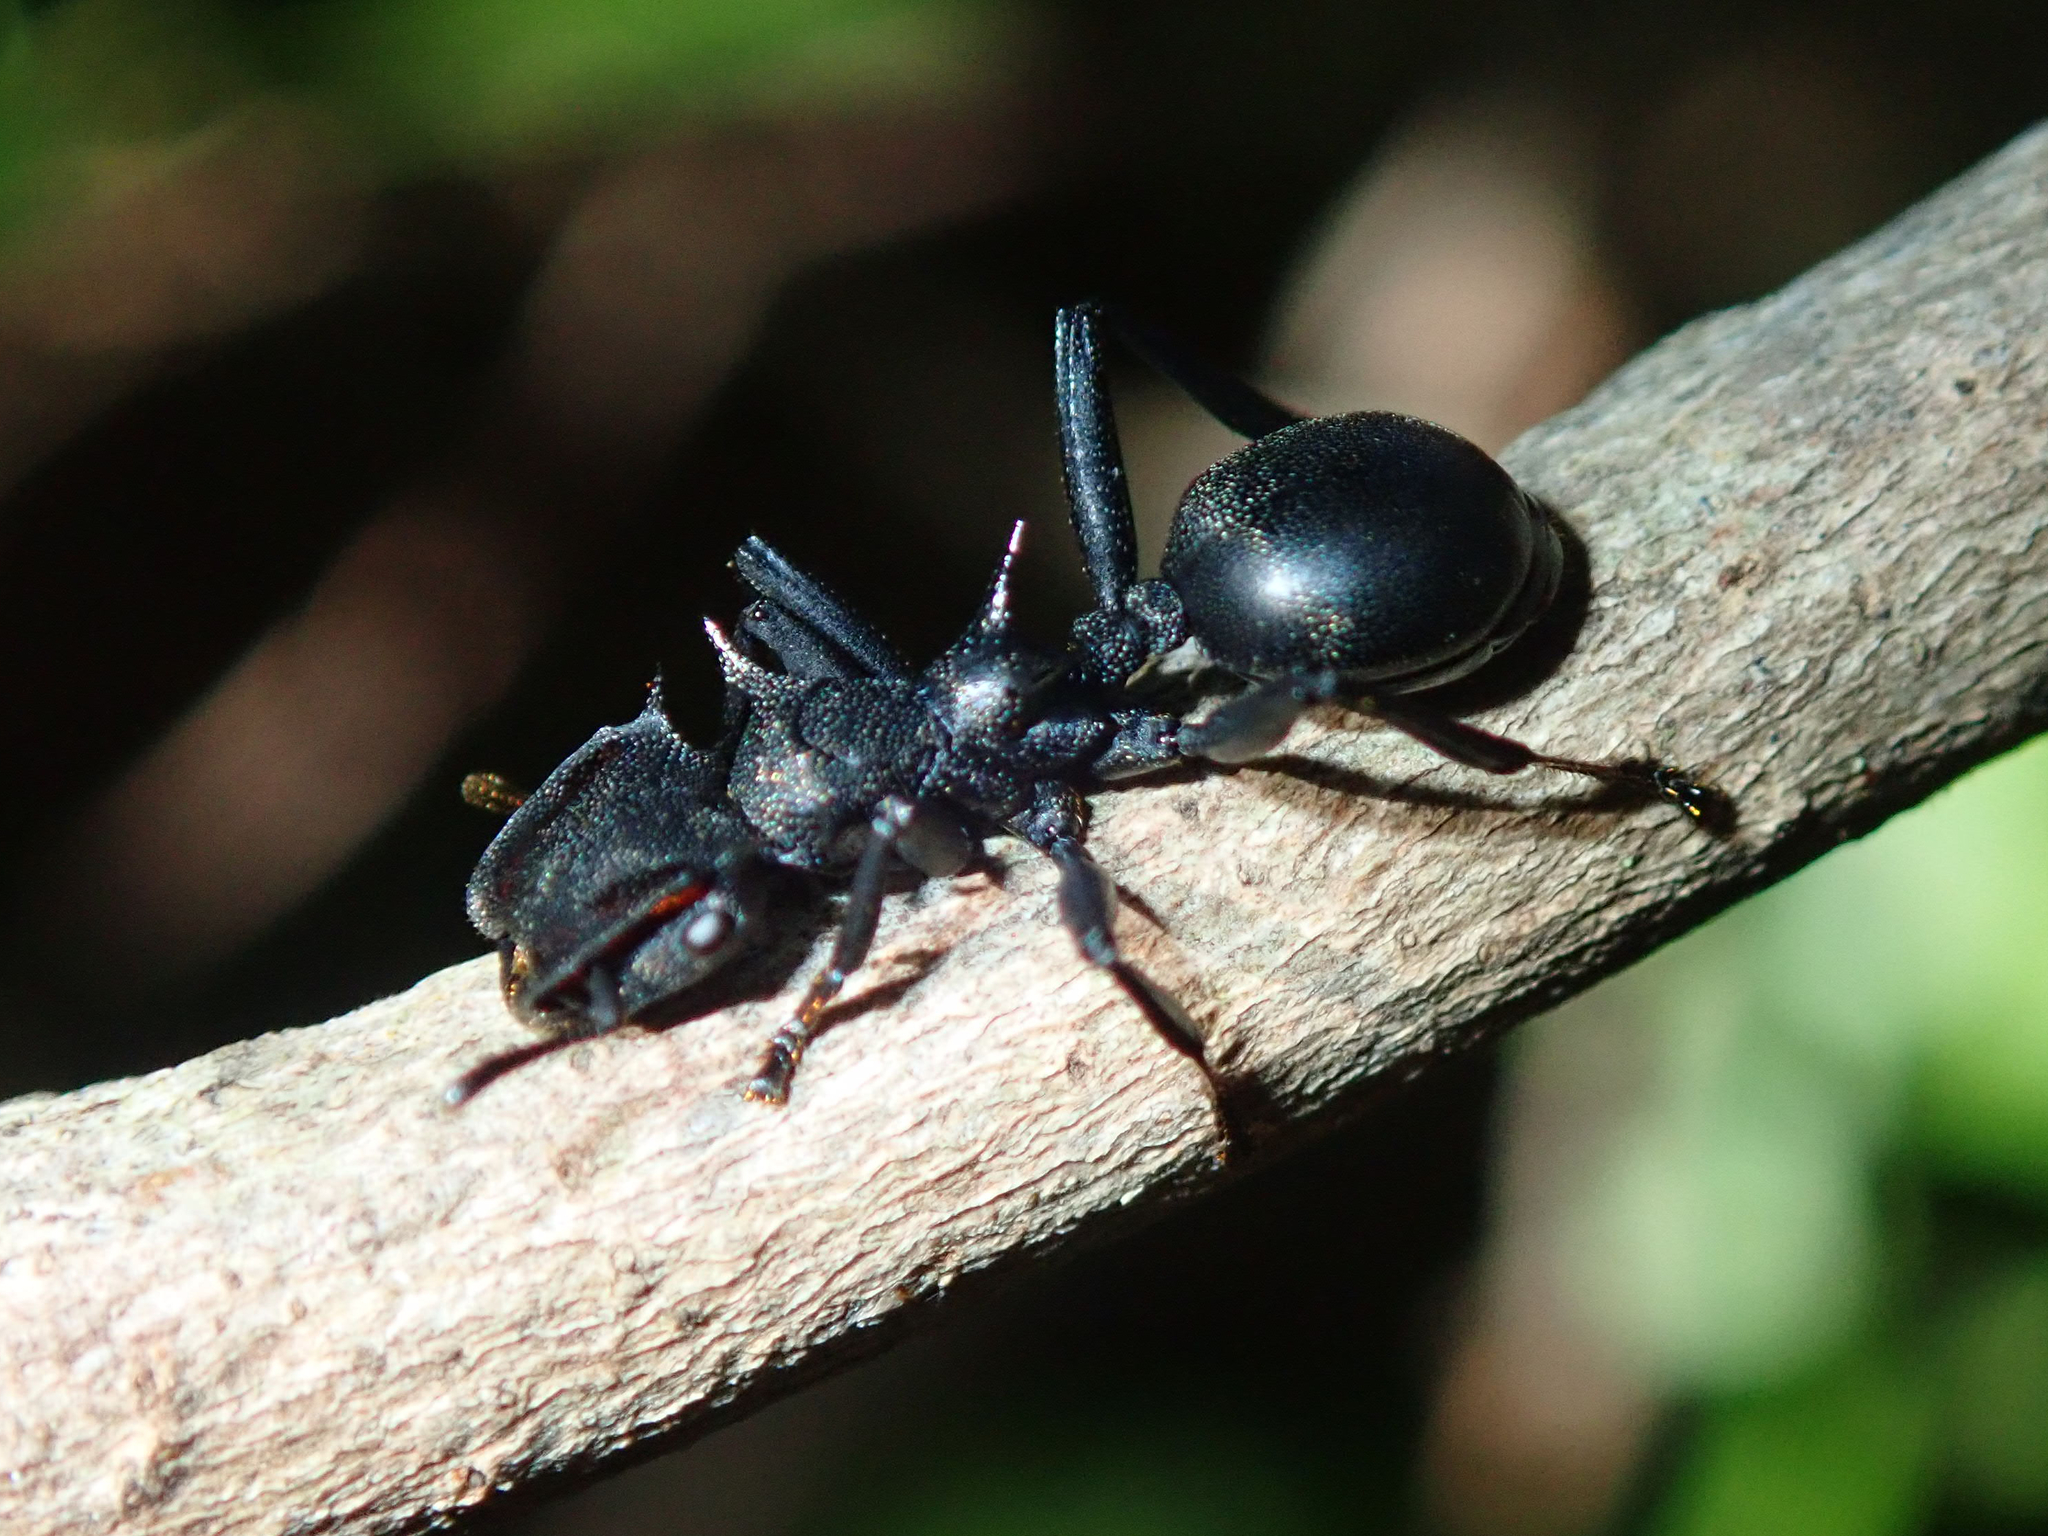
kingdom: Animalia
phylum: Arthropoda
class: Insecta
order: Hymenoptera
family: Formicidae
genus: Cephalotes
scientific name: Cephalotes atratus
